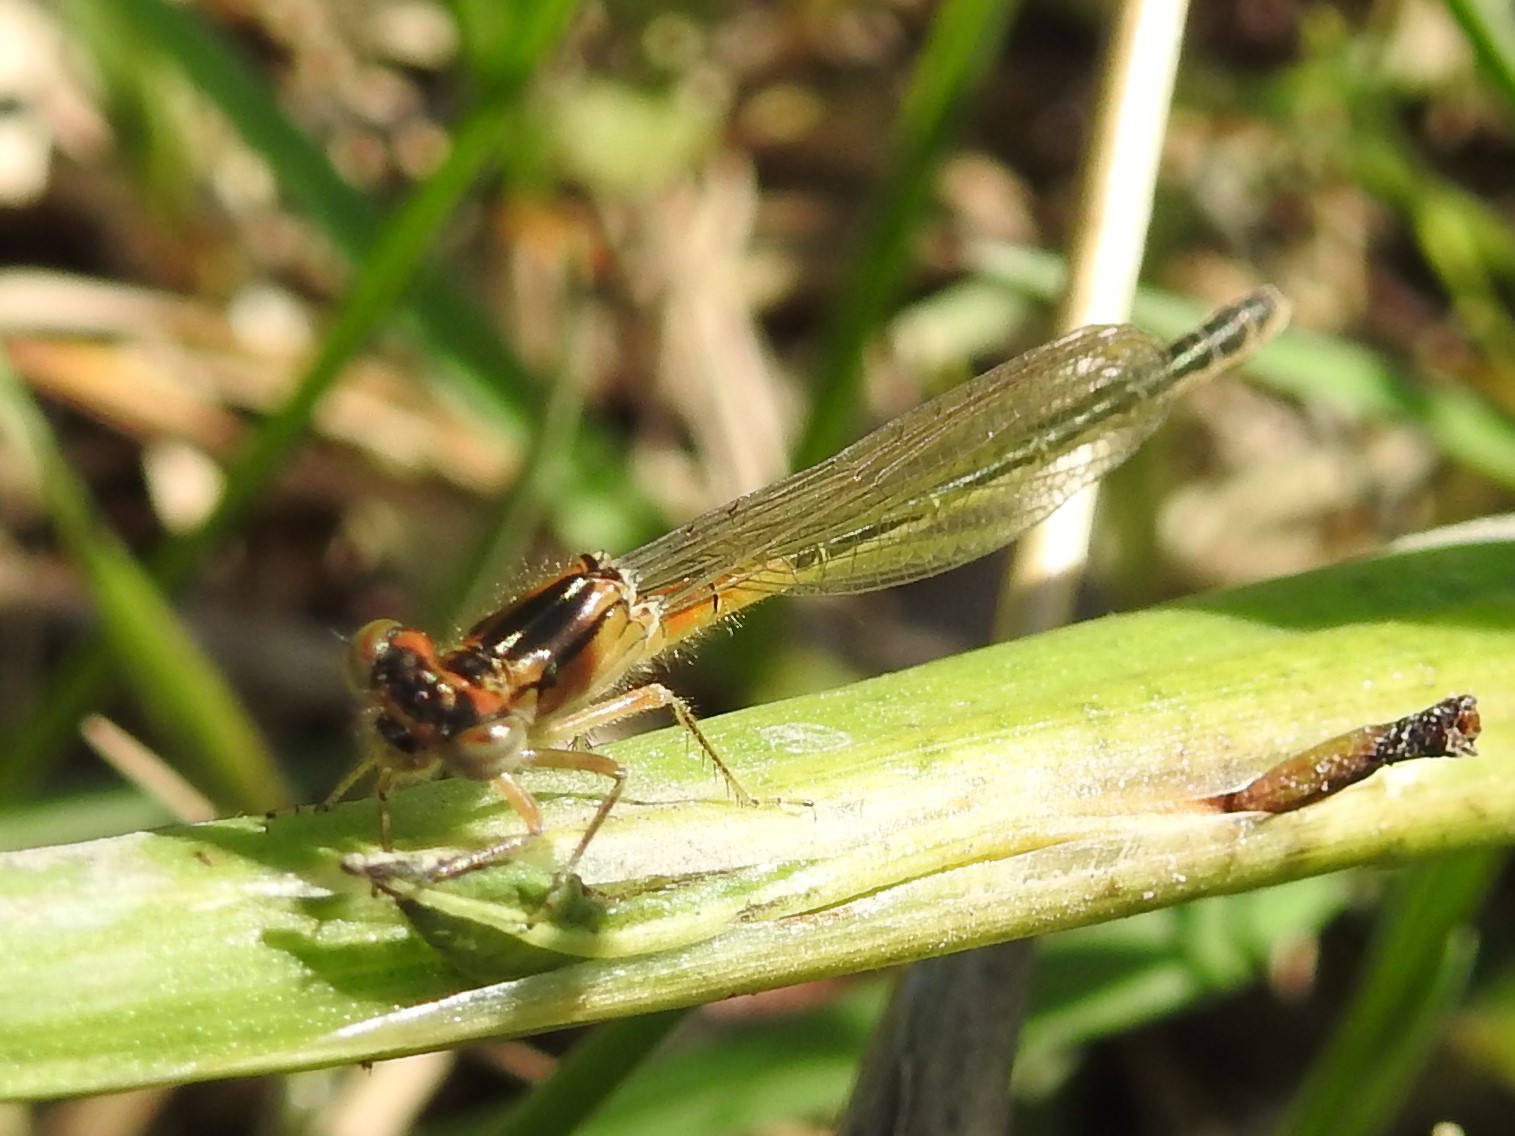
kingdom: Animalia
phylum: Arthropoda
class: Insecta
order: Odonata
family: Coenagrionidae
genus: Ischnura
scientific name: Ischnura verticalis
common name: Eastern forktail
